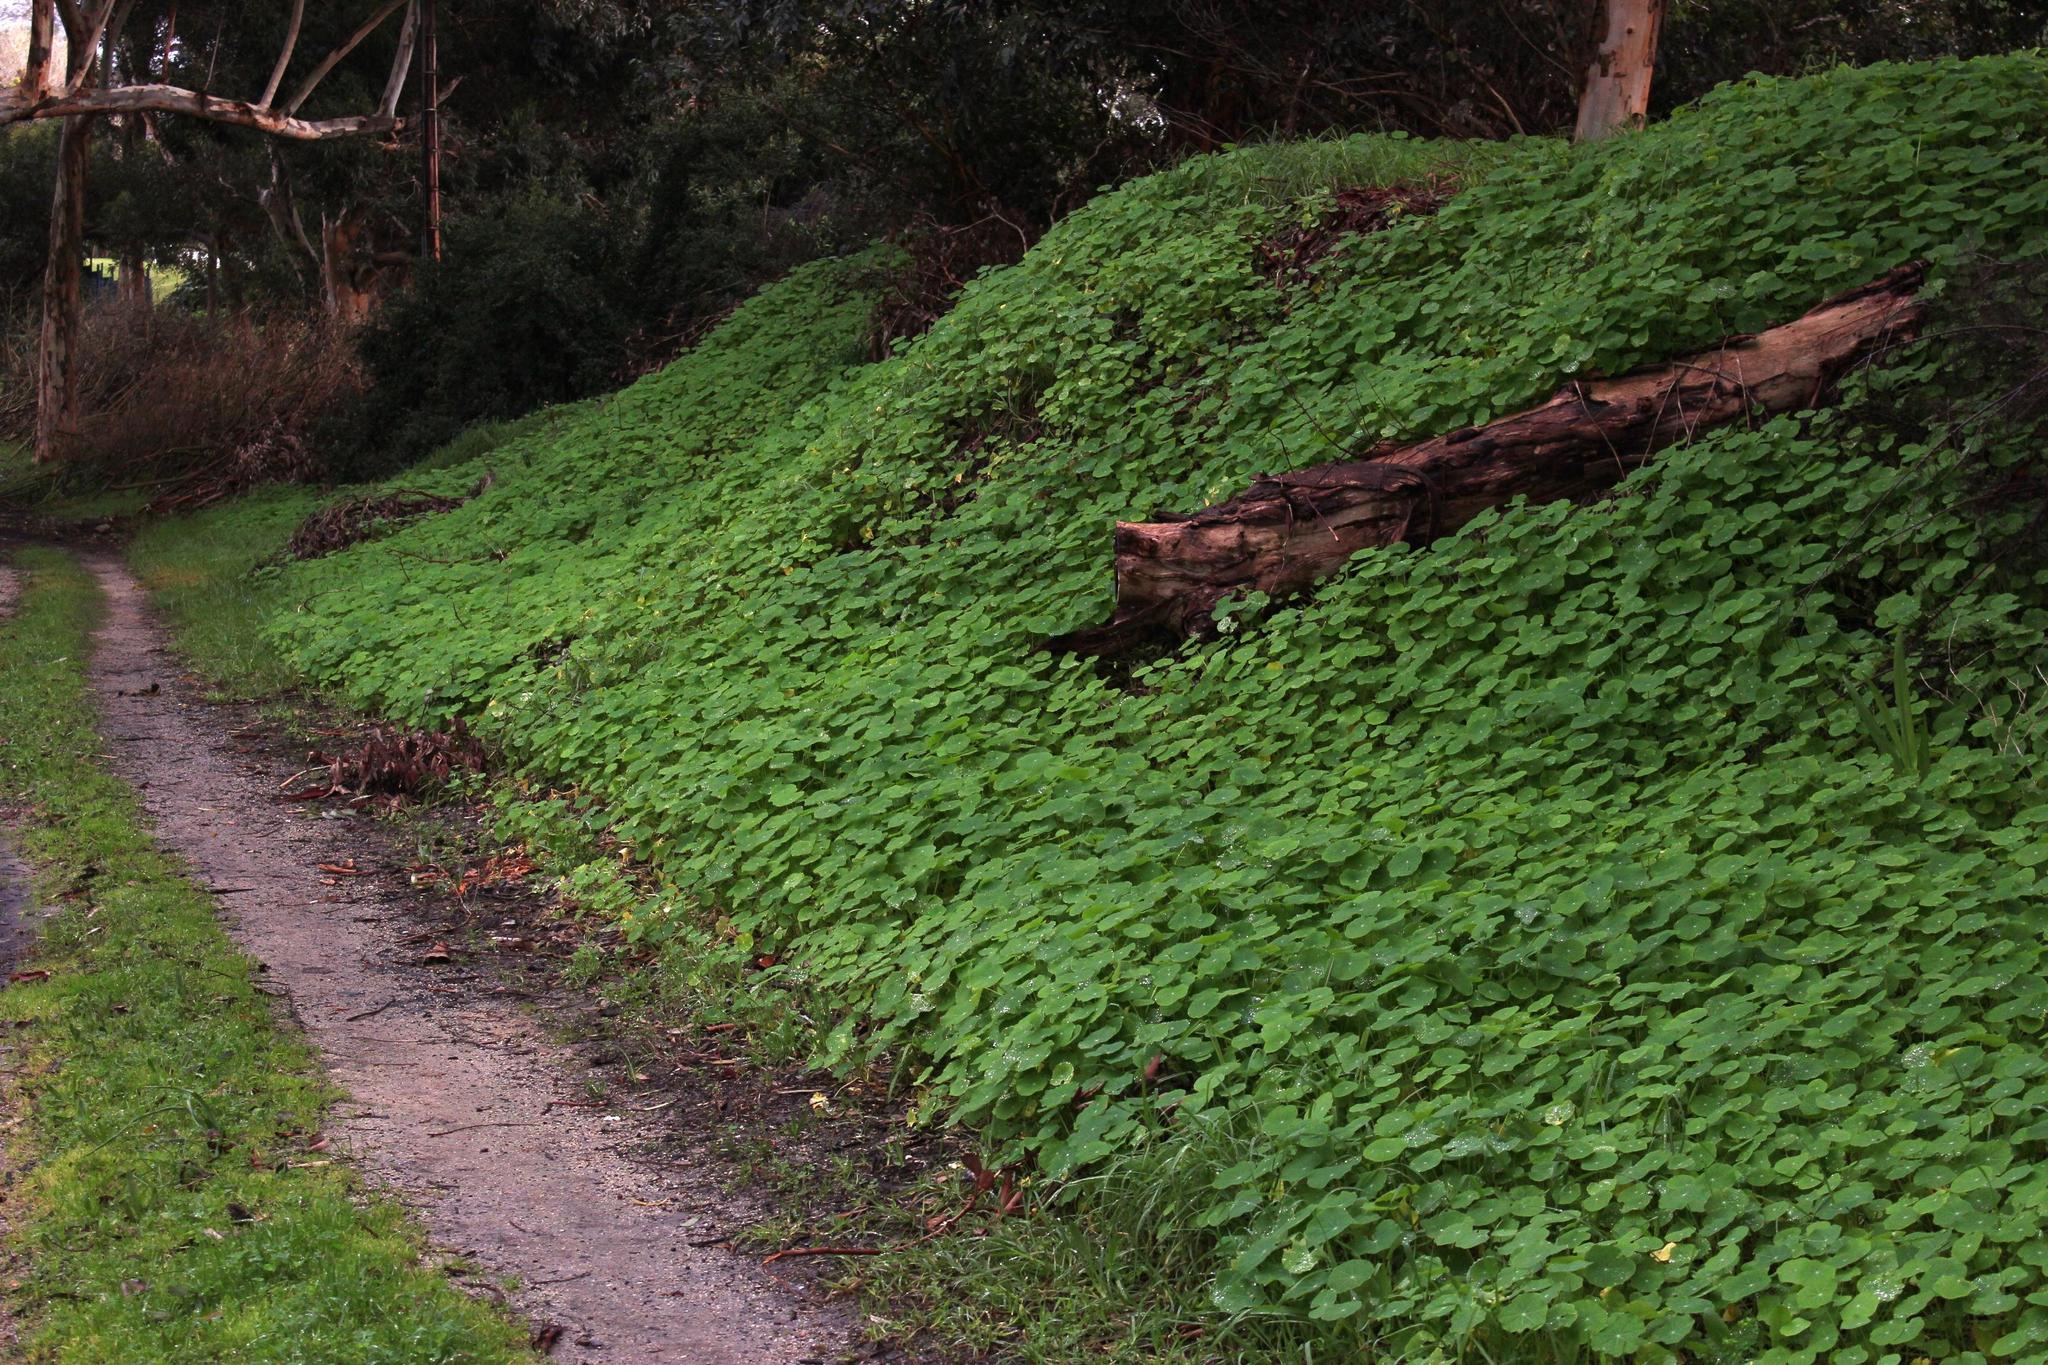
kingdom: Plantae
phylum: Tracheophyta
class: Magnoliopsida
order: Brassicales
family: Tropaeolaceae
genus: Tropaeolum
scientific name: Tropaeolum majus
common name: Nasturtium
